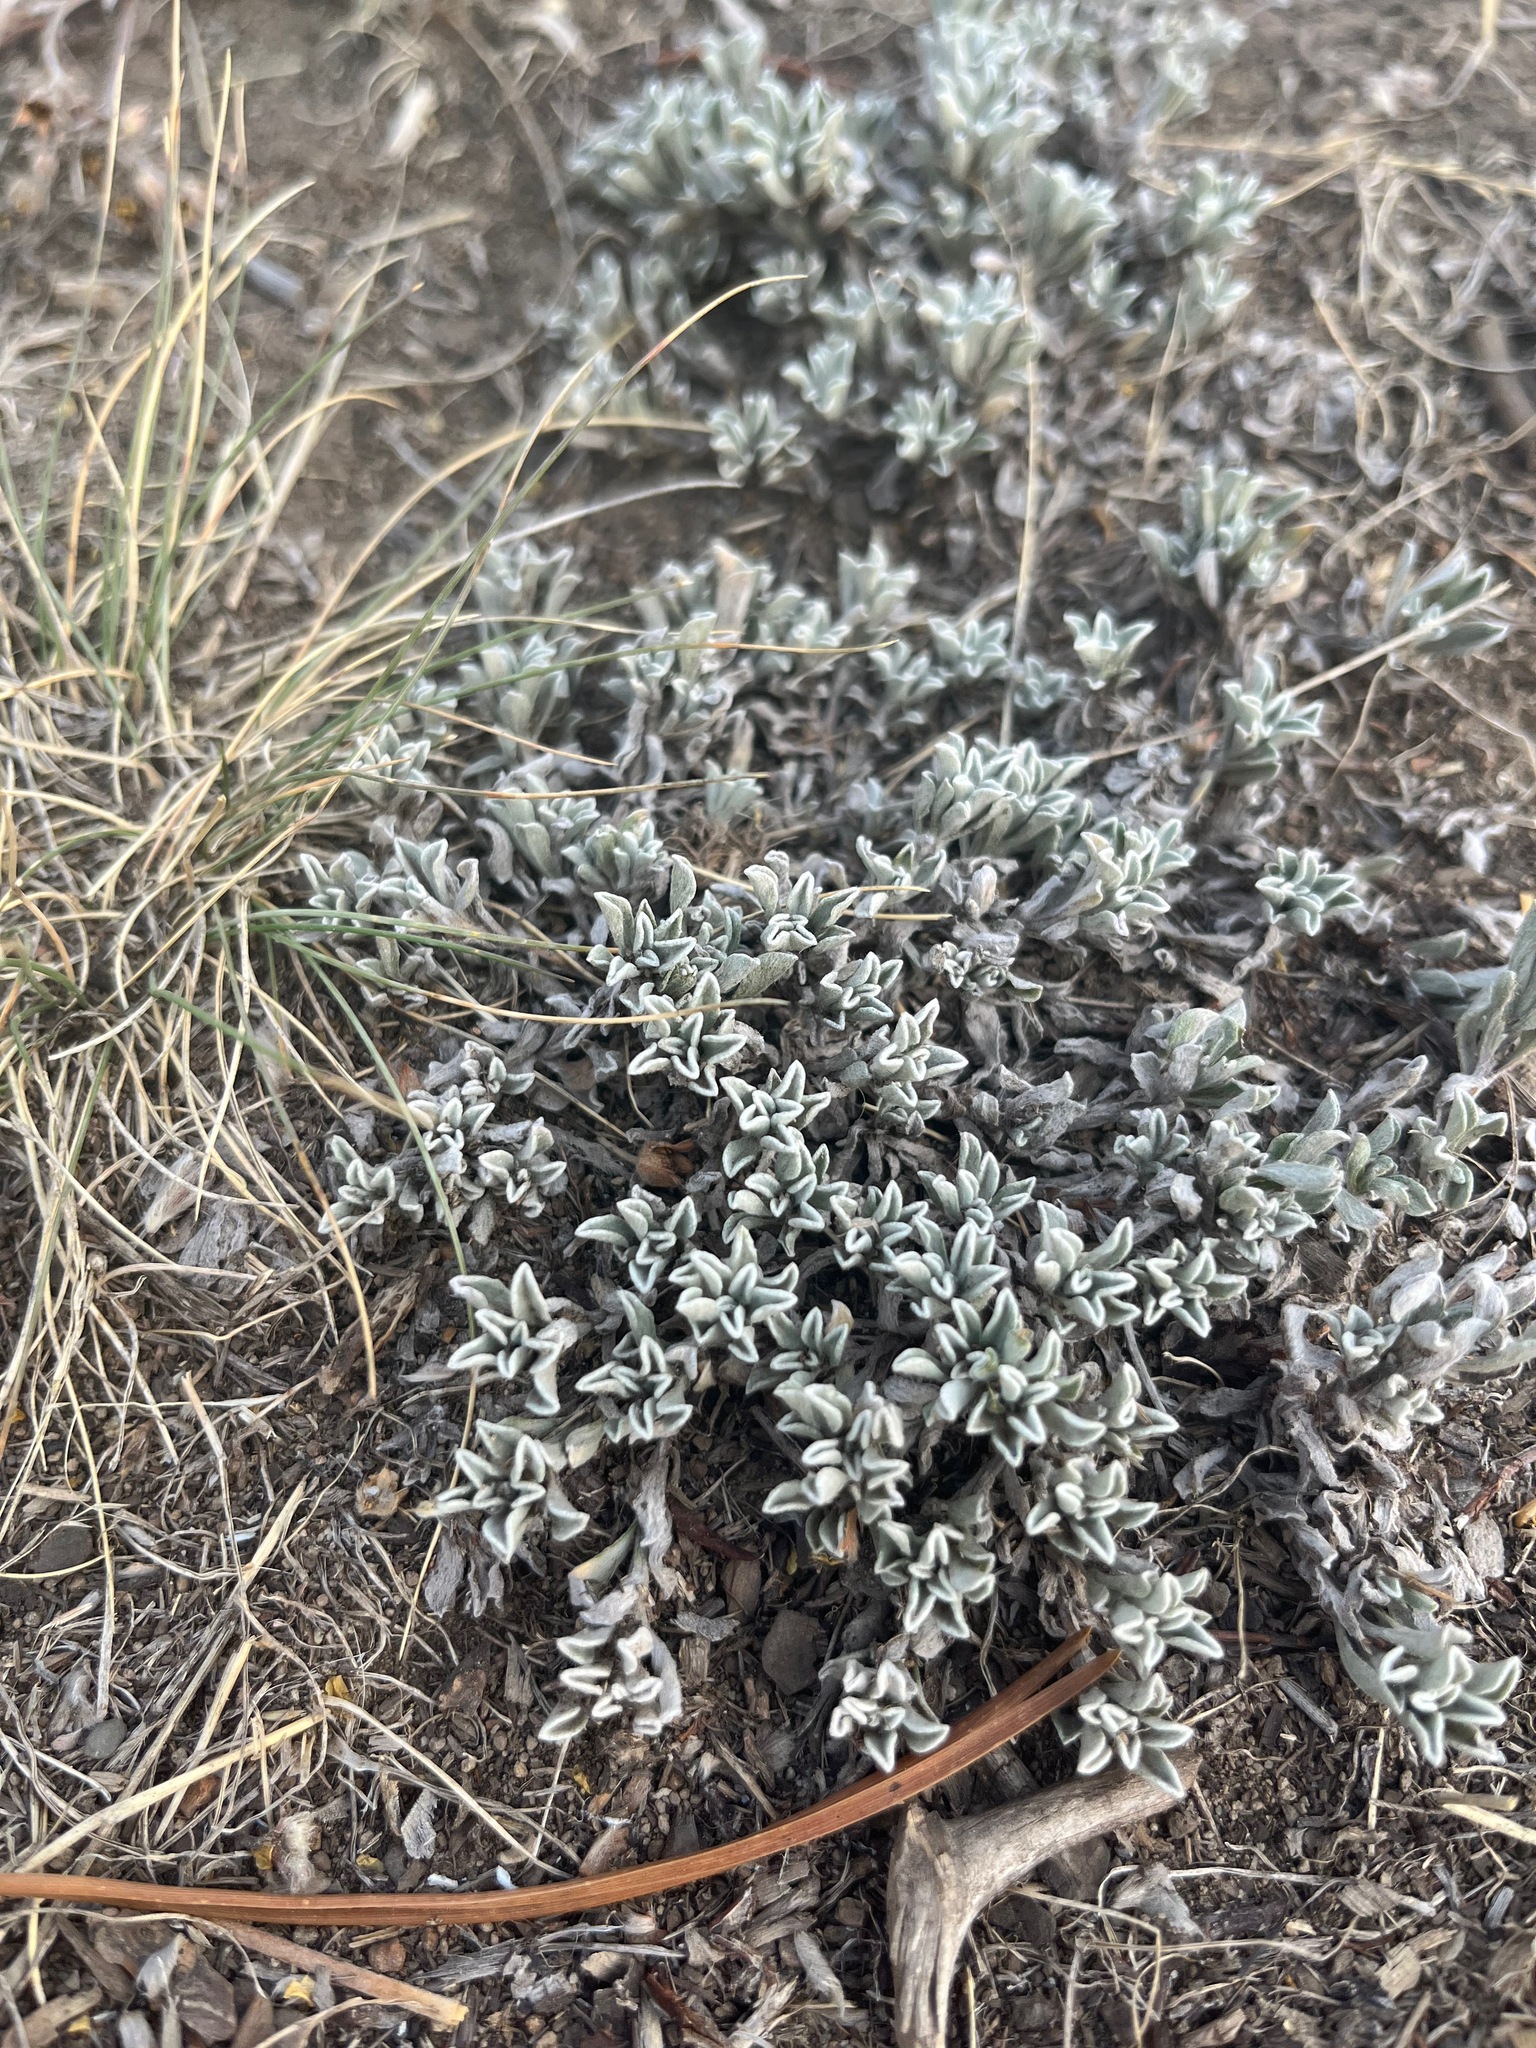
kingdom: Plantae
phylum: Tracheophyta
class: Magnoliopsida
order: Asterales
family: Asteraceae
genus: Antennaria
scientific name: Antennaria umbrinella
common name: Brown pussytoes
